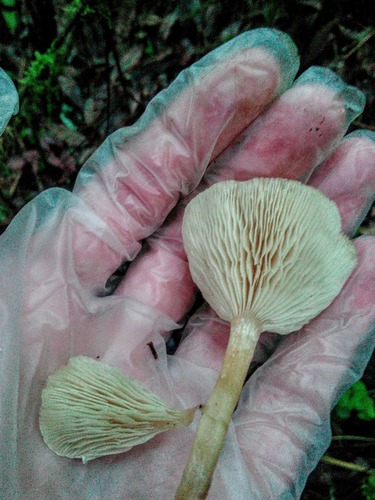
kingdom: Fungi
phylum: Basidiomycota
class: Agaricomycetes
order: Agaricales
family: Tricholomataceae
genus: Clitocybe
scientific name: Clitocybe
